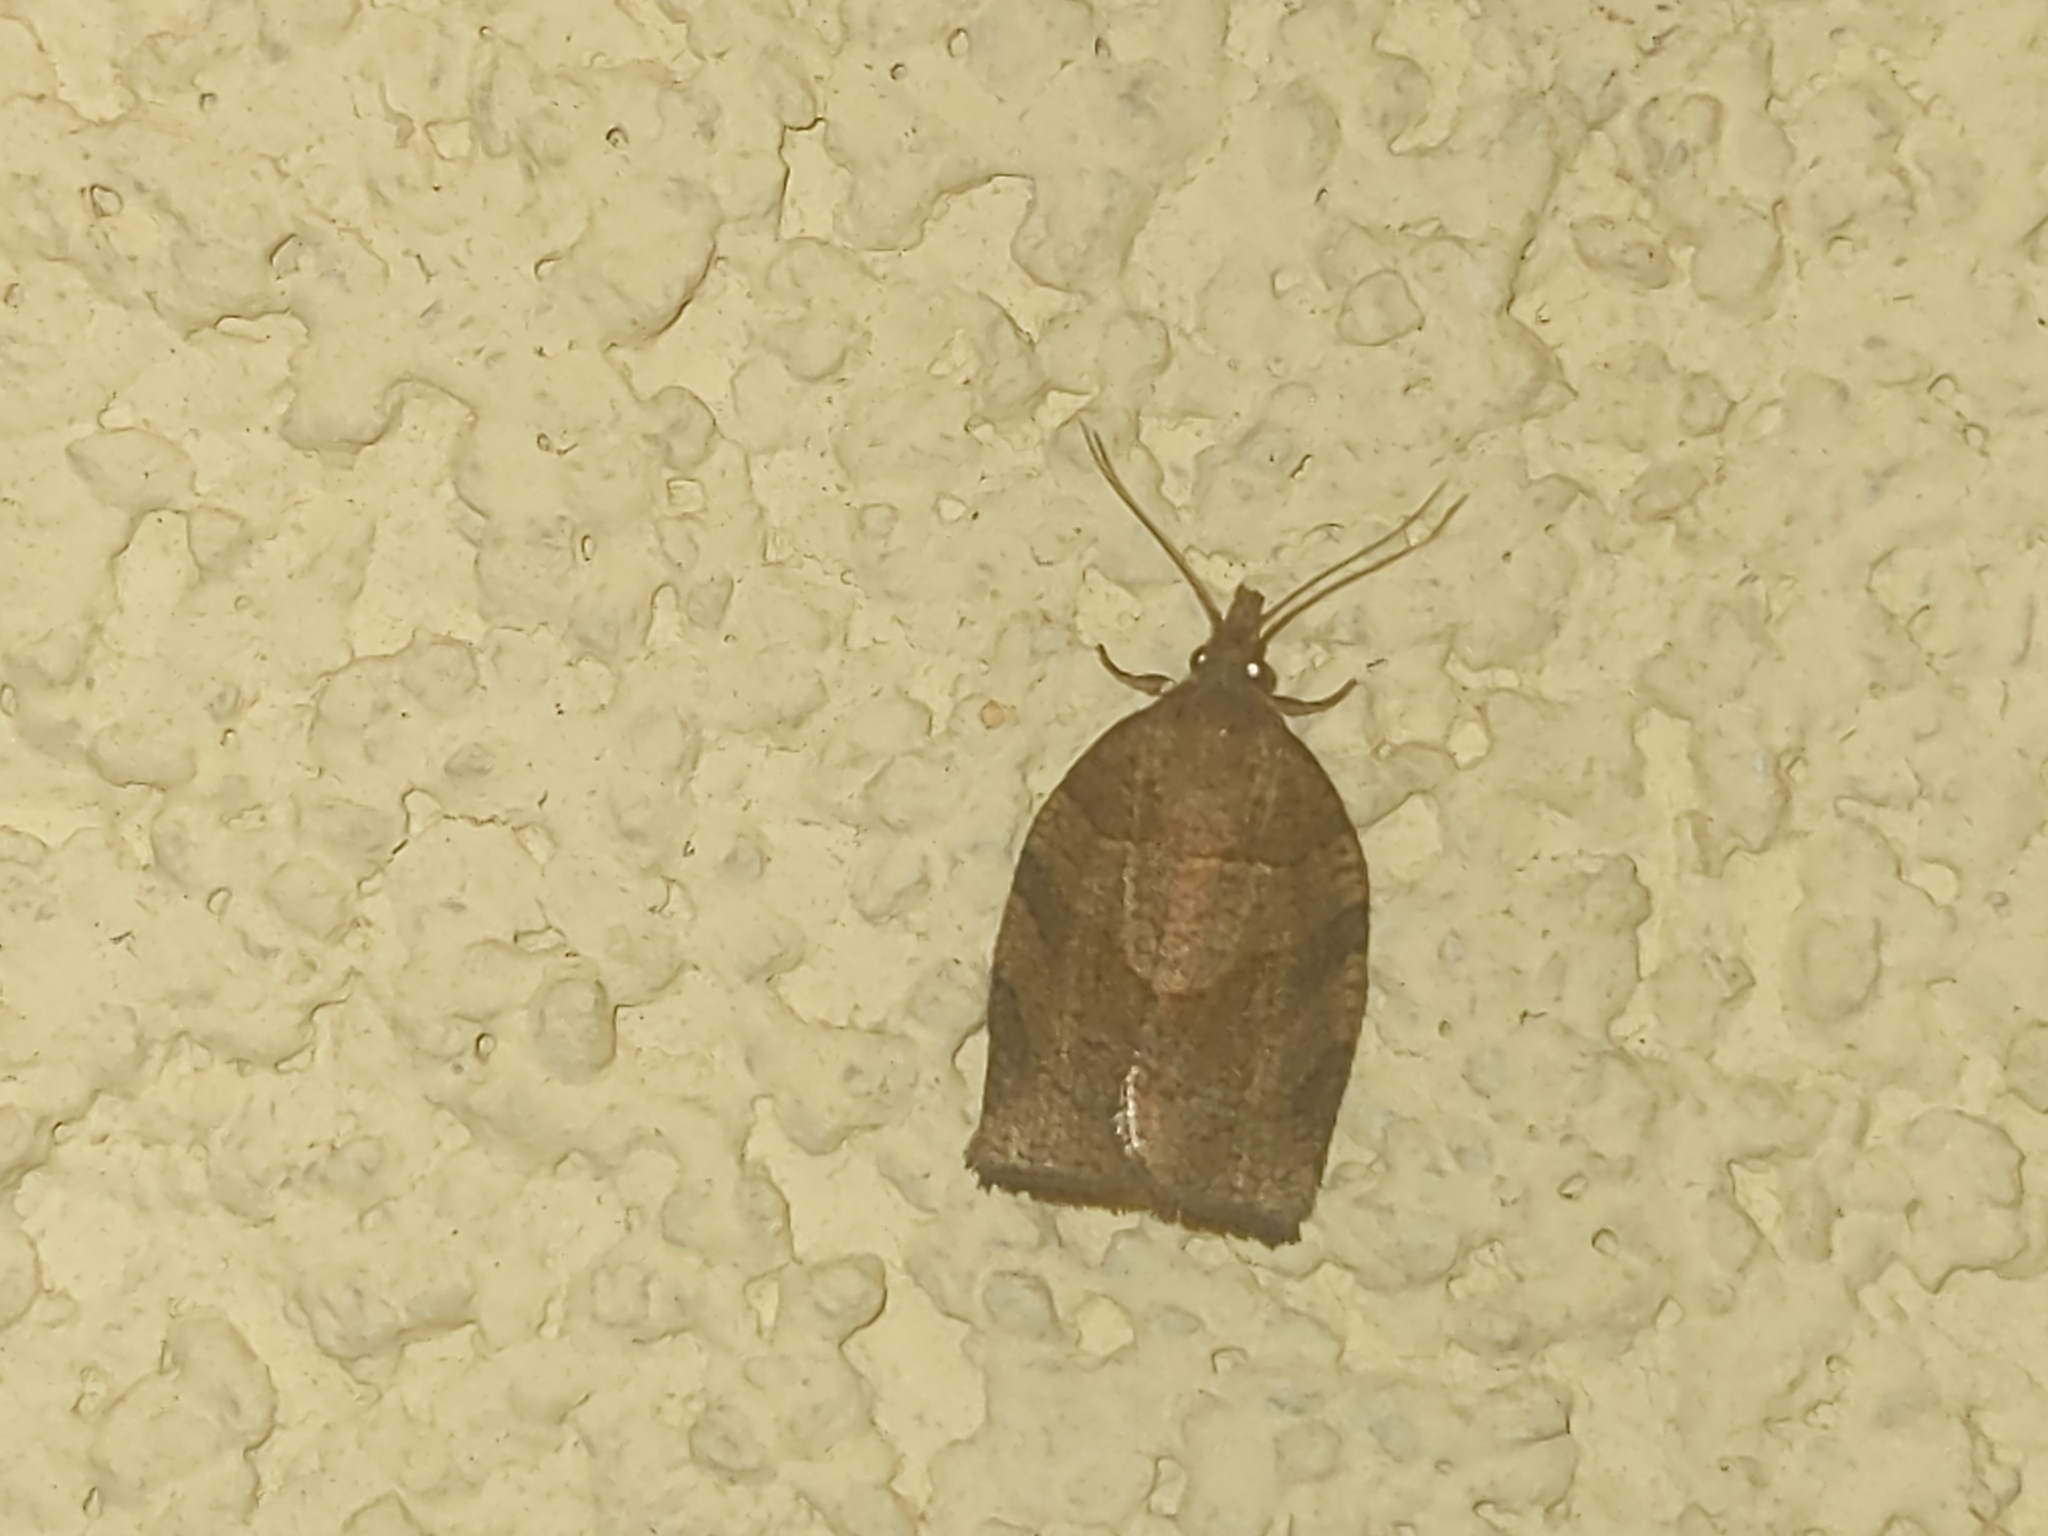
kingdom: Animalia
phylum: Arthropoda
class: Insecta
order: Lepidoptera
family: Tortricidae
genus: Pandemis
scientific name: Pandemis dumetana
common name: Thicket twist
